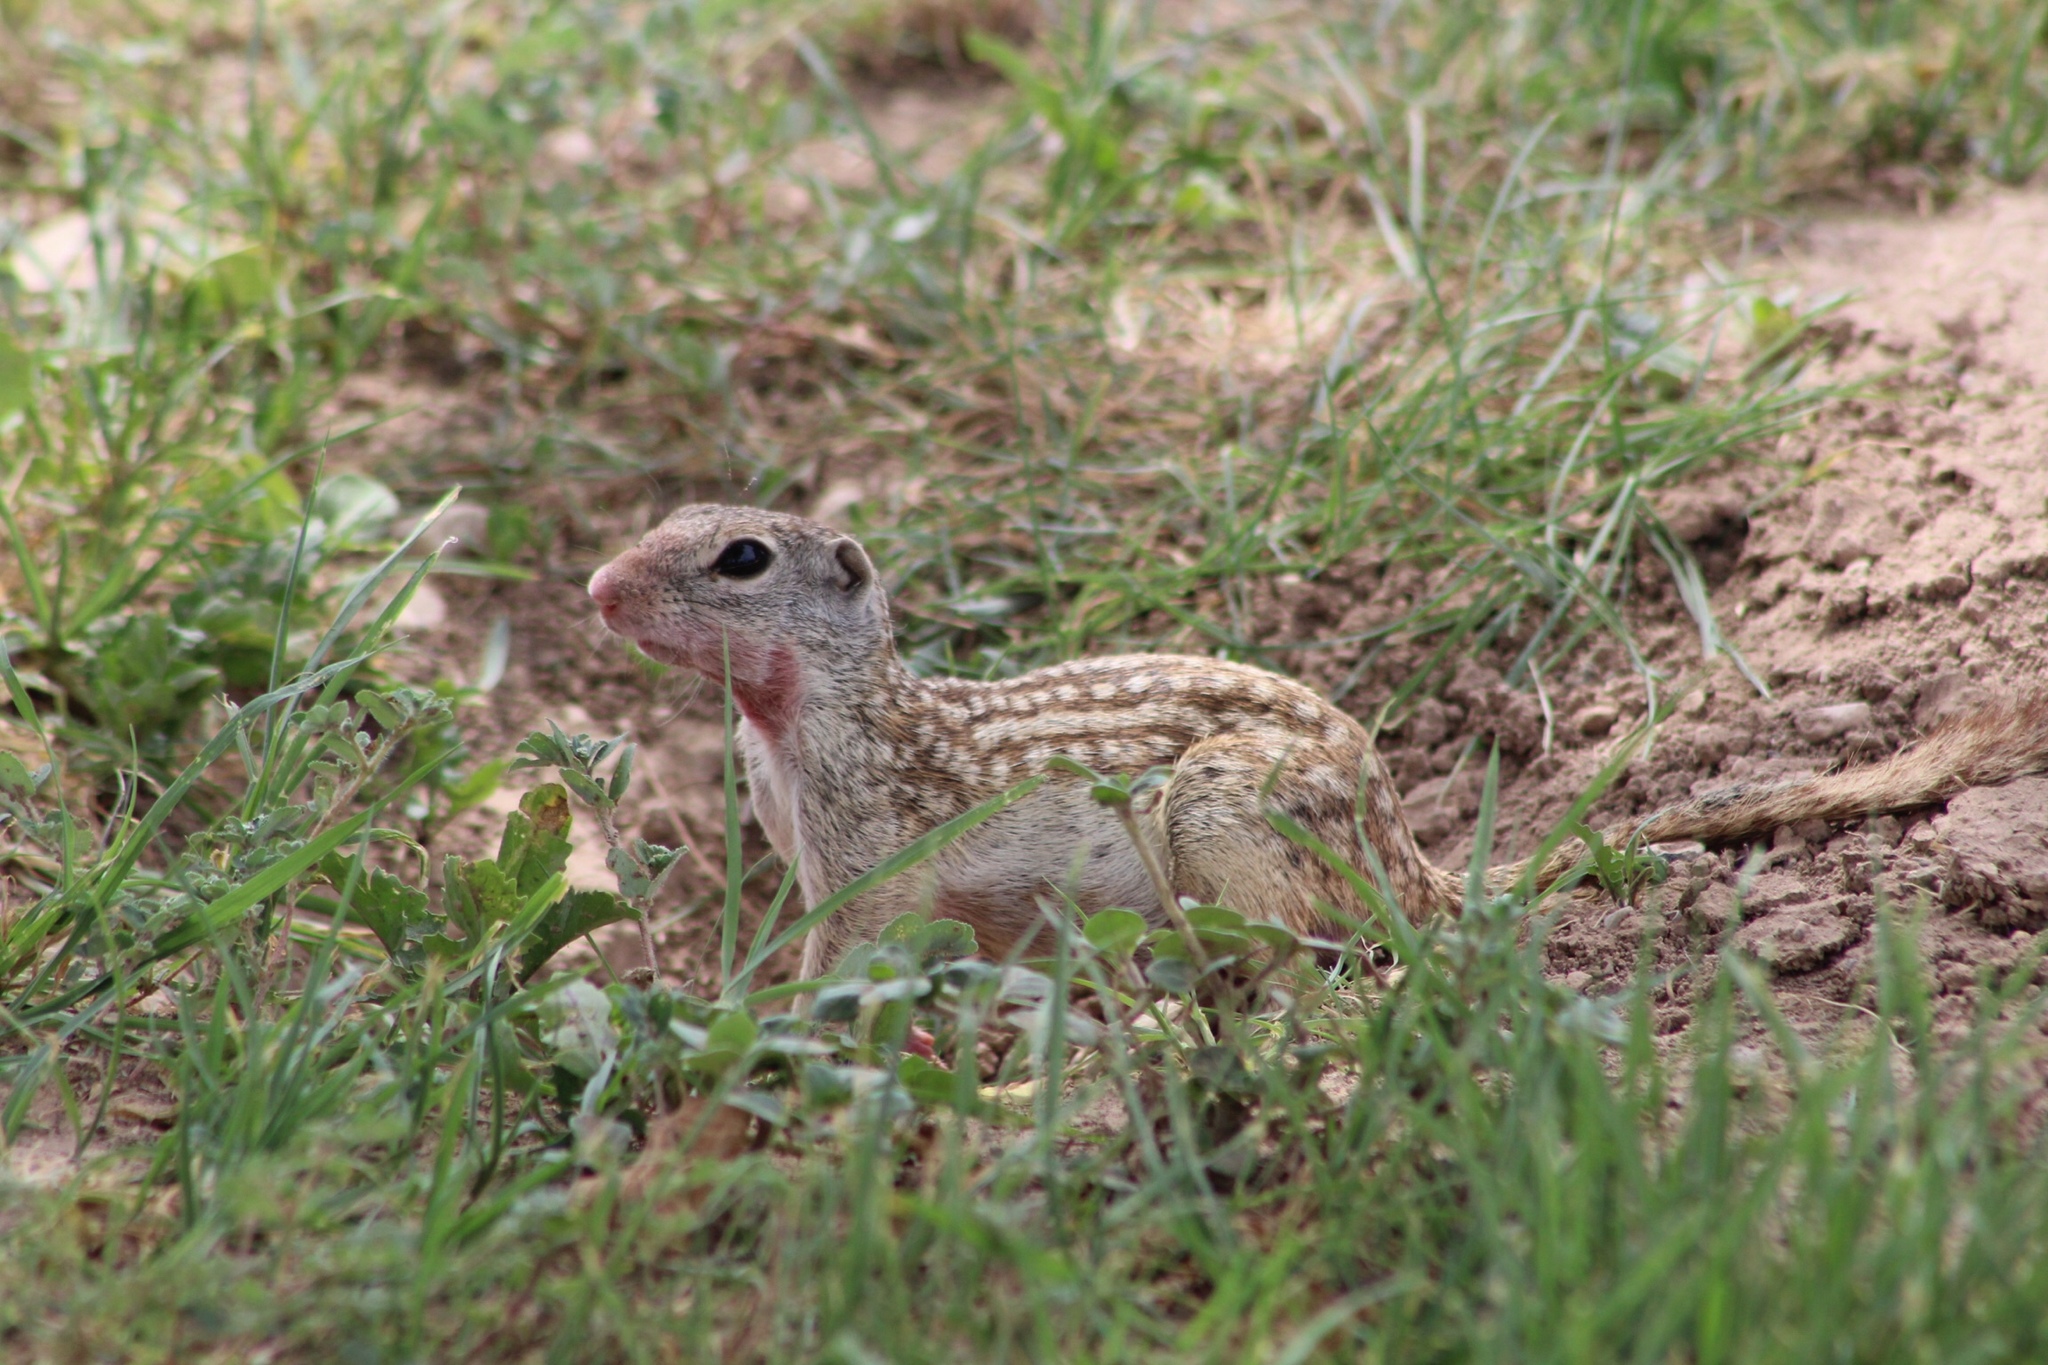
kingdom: Animalia
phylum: Chordata
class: Mammalia
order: Rodentia
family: Sciuridae
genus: Ictidomys
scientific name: Ictidomys parvidens
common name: Rio grande ground squirrel
